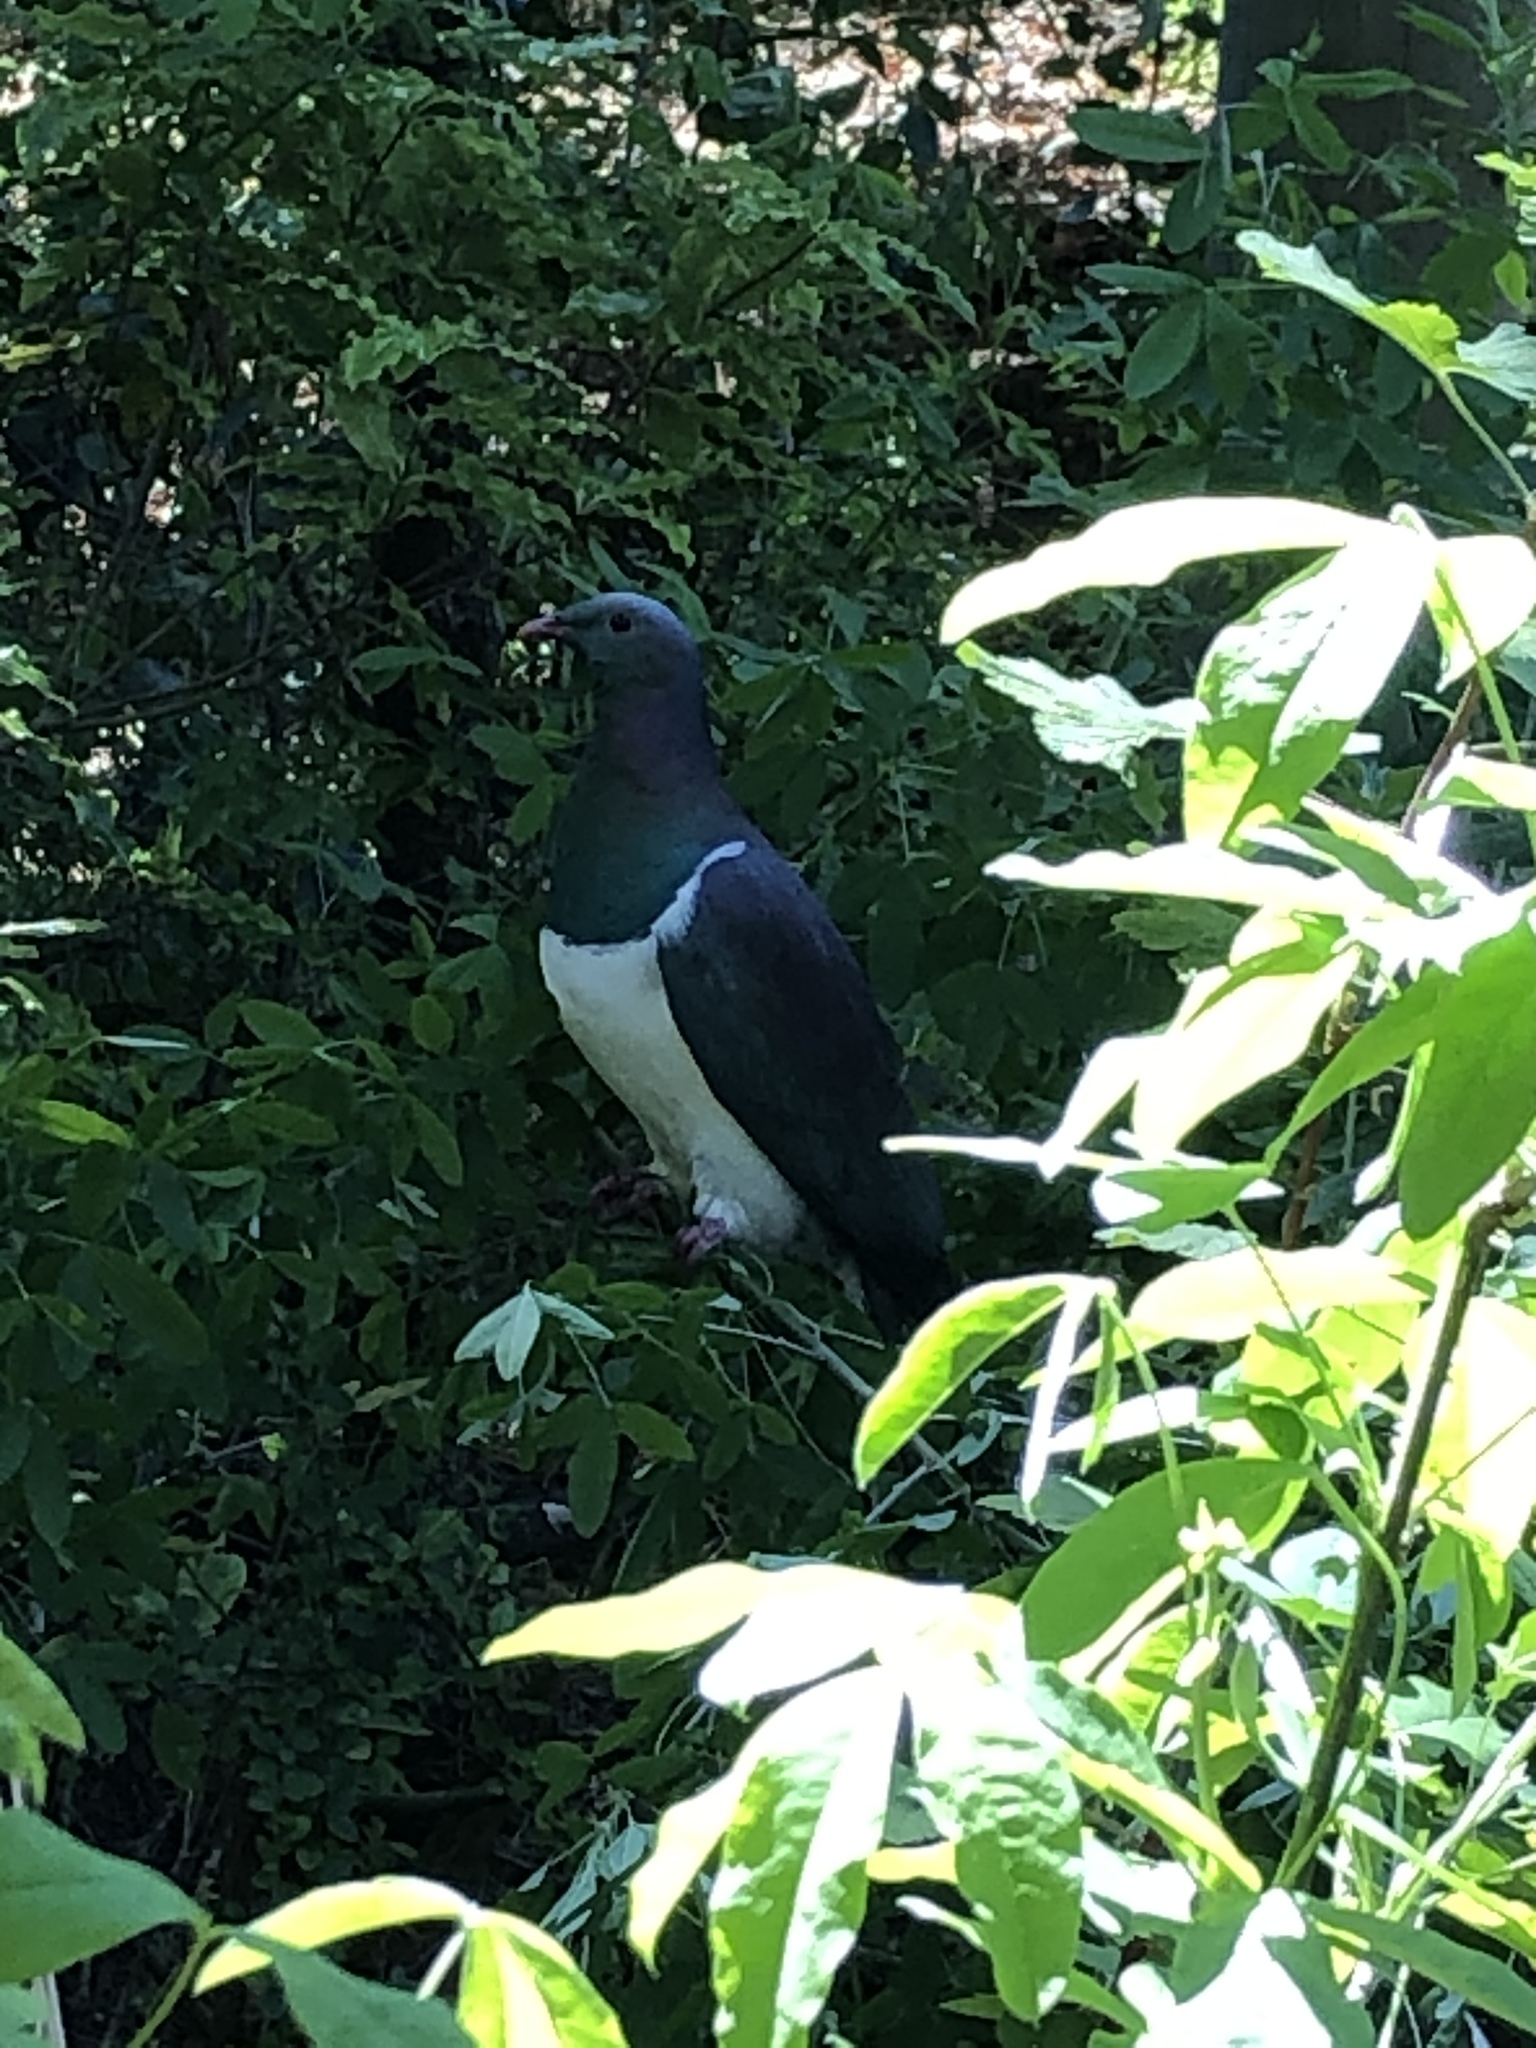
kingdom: Animalia
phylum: Chordata
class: Aves
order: Columbiformes
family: Columbidae
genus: Hemiphaga
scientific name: Hemiphaga novaeseelandiae
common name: New zealand pigeon
